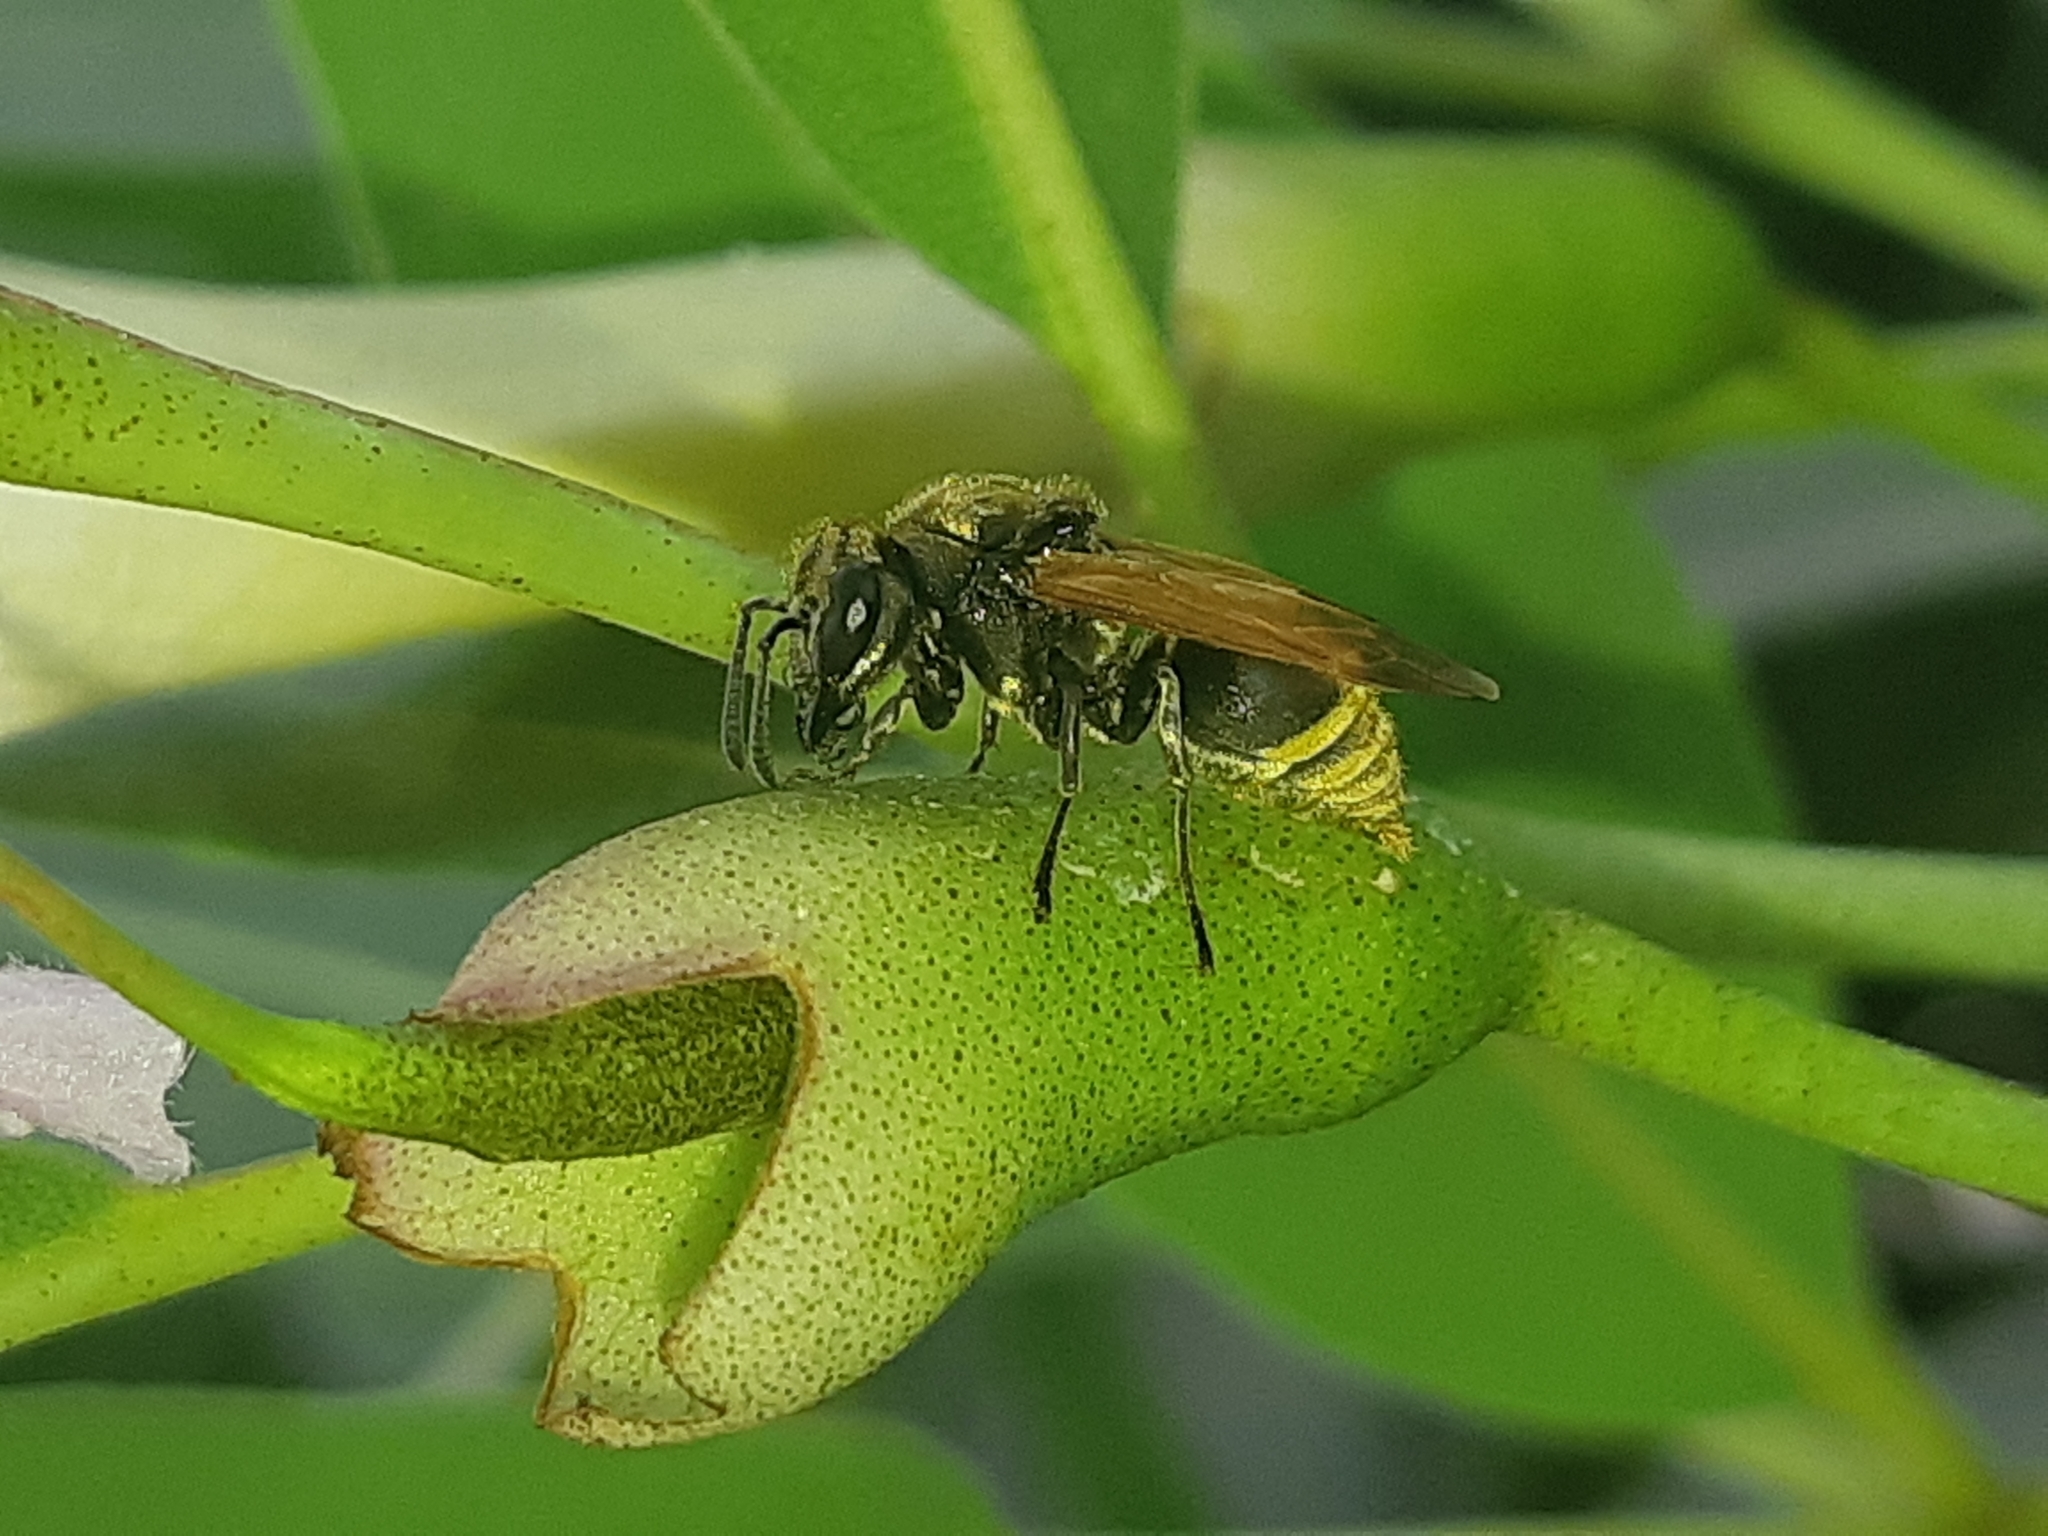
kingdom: Animalia
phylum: Arthropoda
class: Insecta
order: Hymenoptera
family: Vespidae
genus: Brachygastra
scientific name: Brachygastra lecheguana
